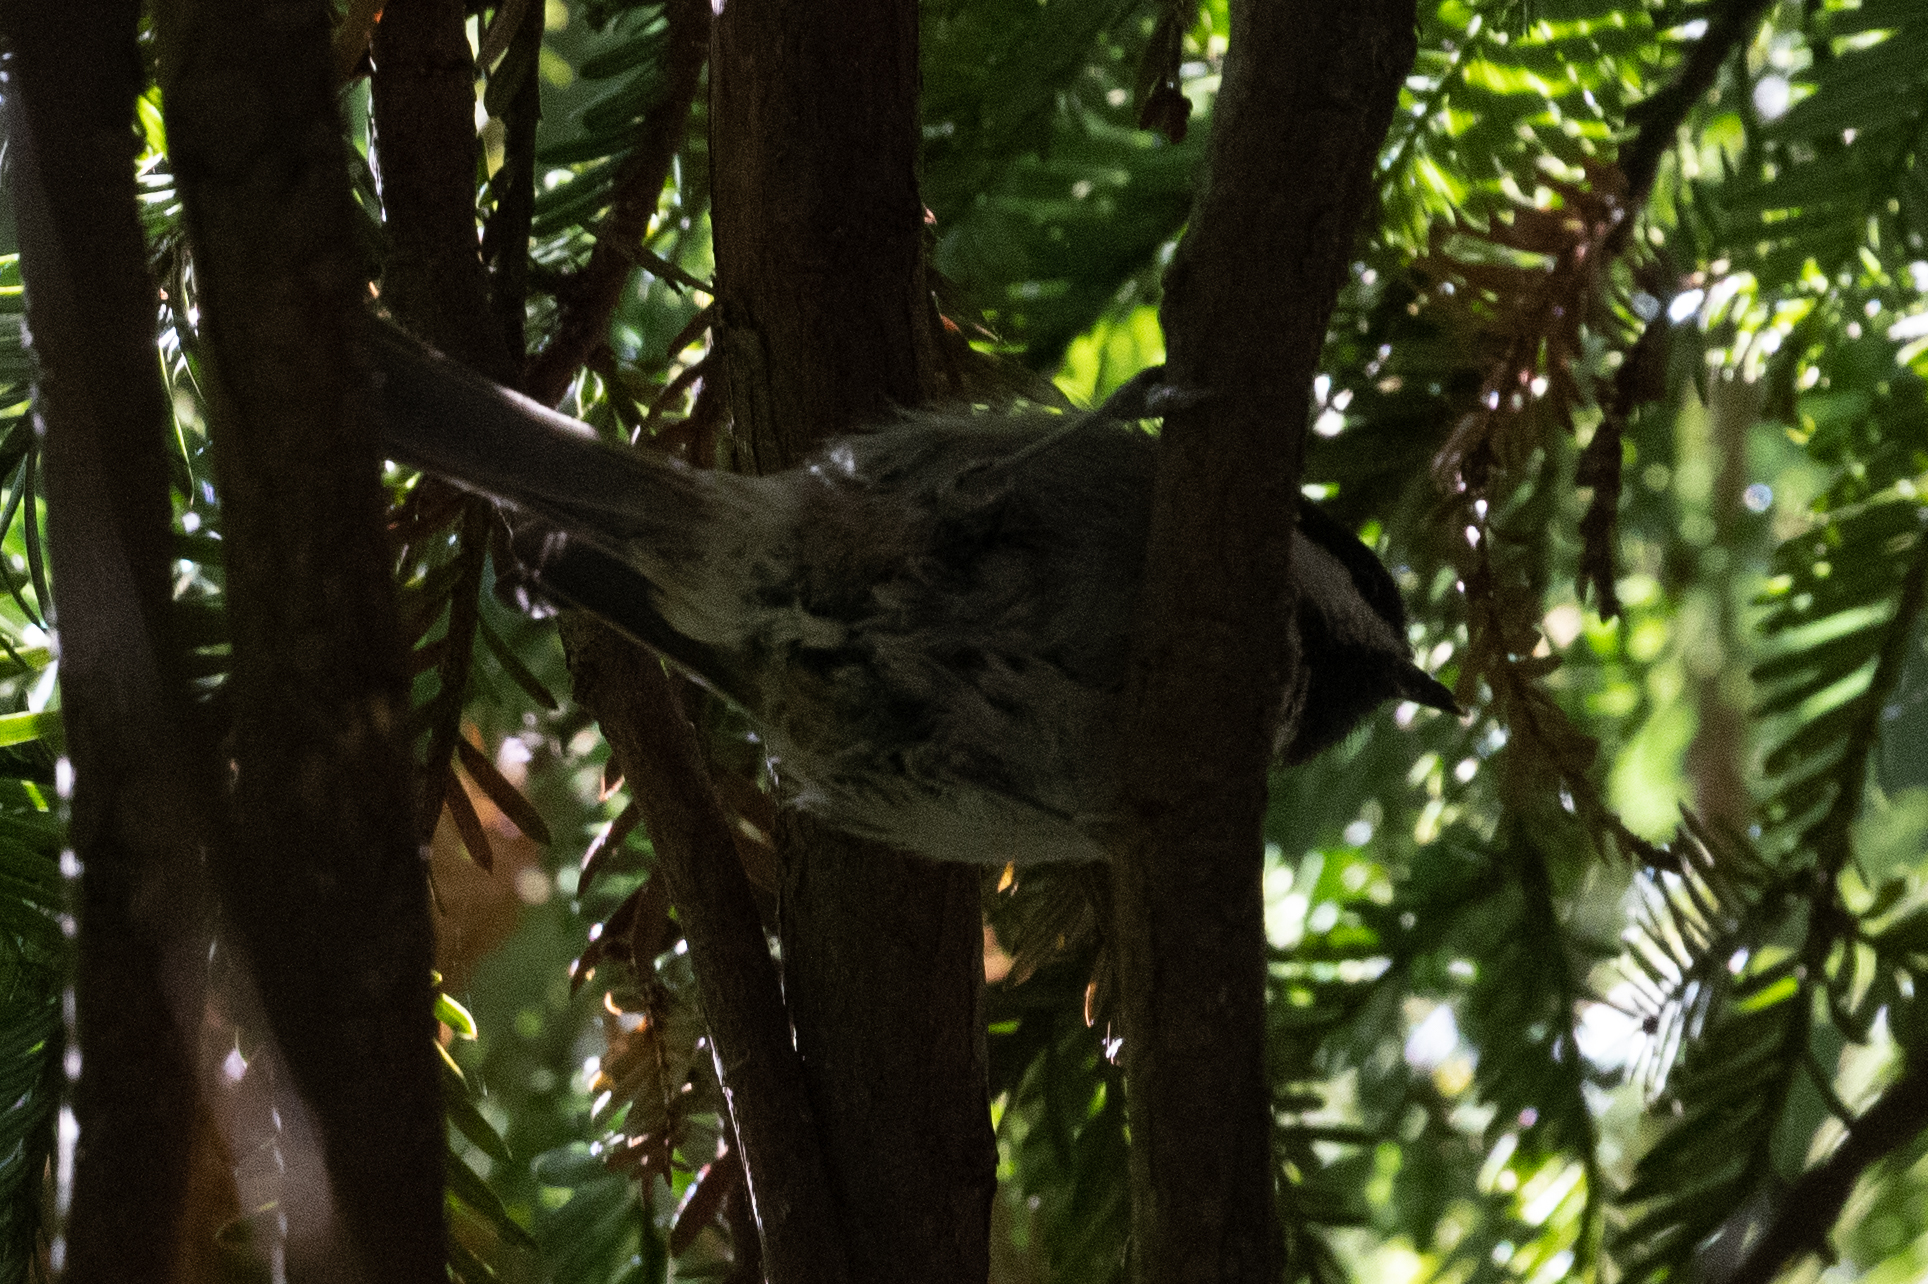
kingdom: Animalia
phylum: Chordata
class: Aves
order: Passeriformes
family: Paridae
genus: Poecile
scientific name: Poecile rufescens
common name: Chestnut-backed chickadee
